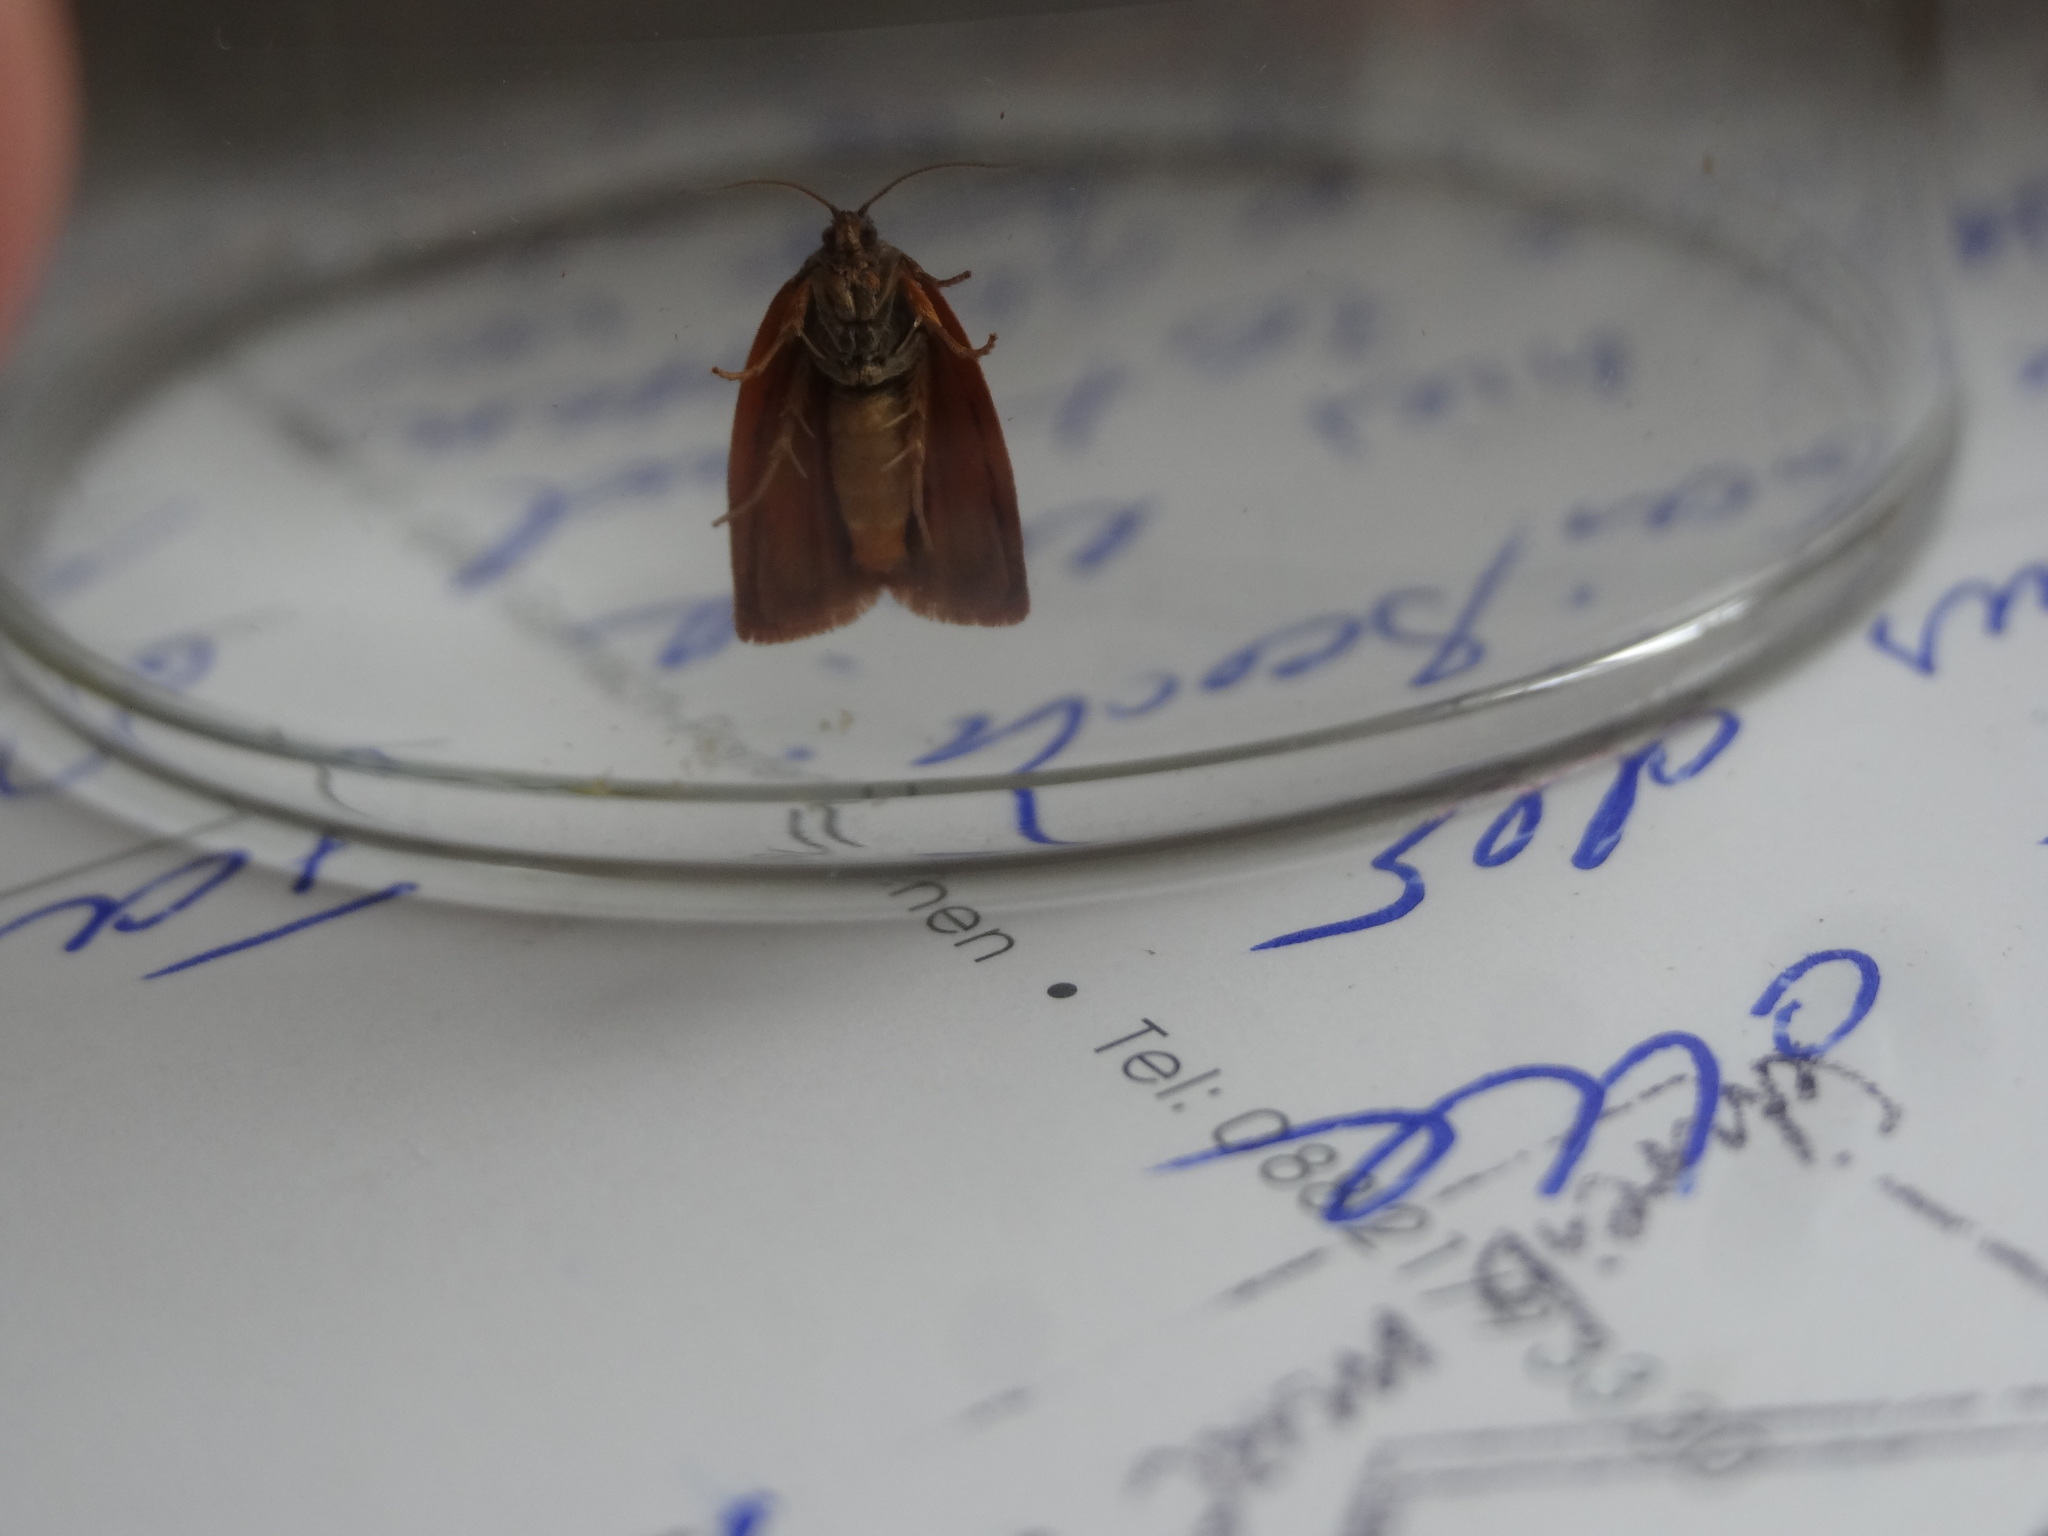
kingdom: Animalia
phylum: Arthropoda
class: Insecta
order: Lepidoptera
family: Tortricidae
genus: Cacoecimorpha
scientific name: Cacoecimorpha pronubana
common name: Carnation tortrix
